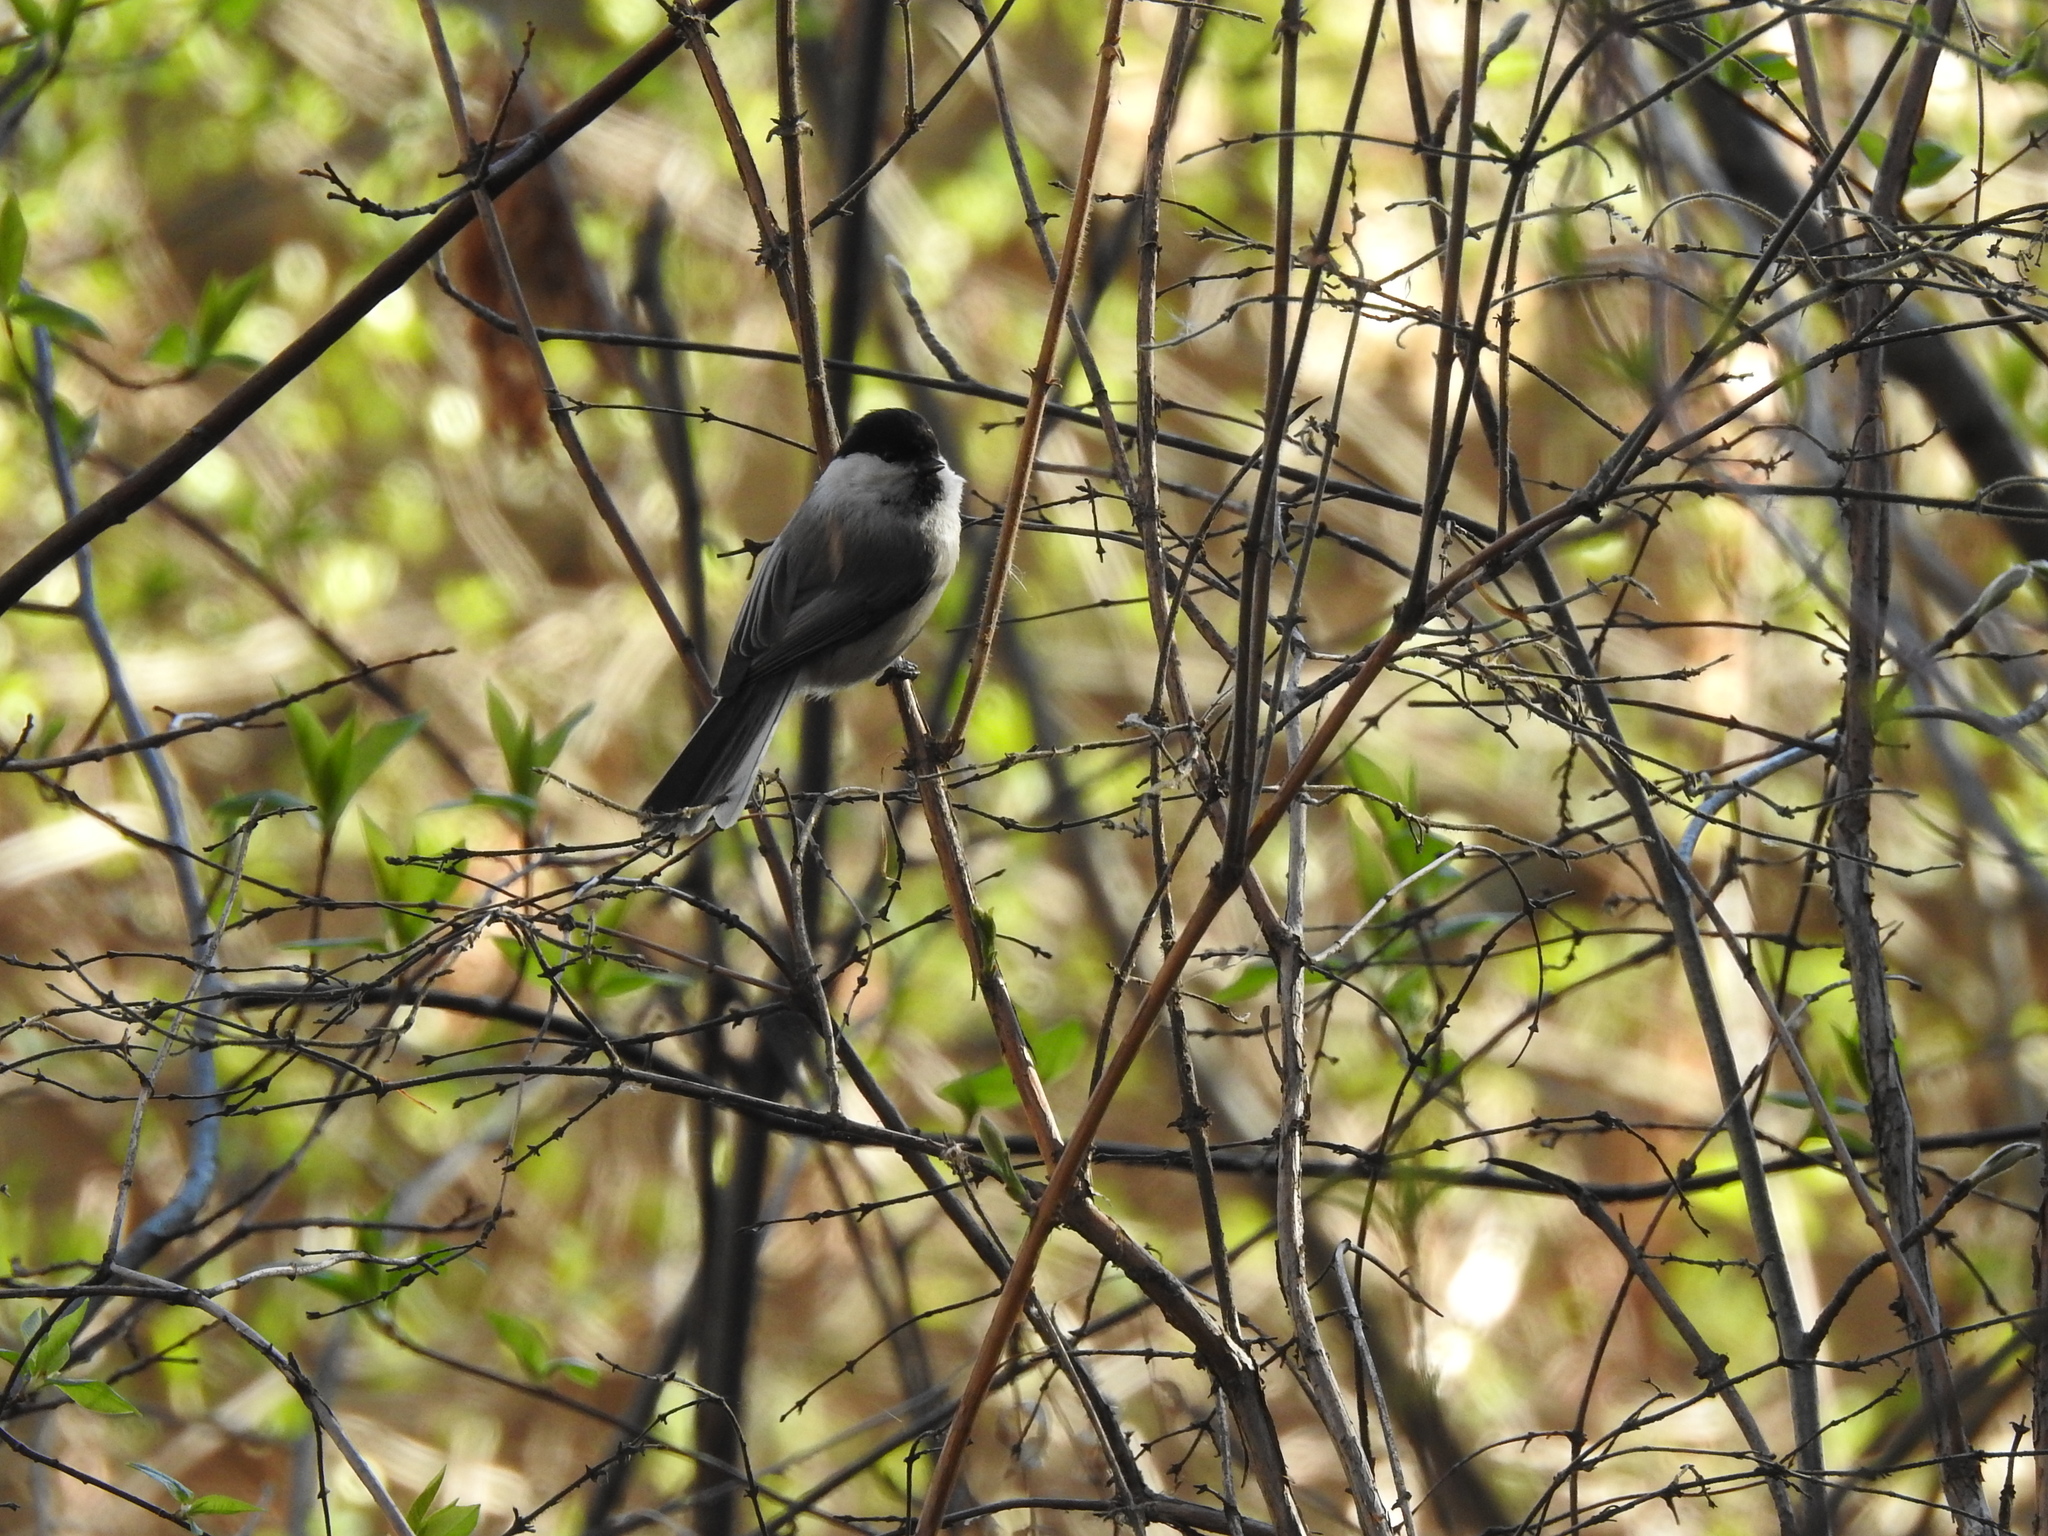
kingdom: Animalia
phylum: Chordata
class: Aves
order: Passeriformes
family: Paridae
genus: Poecile
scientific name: Poecile montanus
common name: Willow tit
